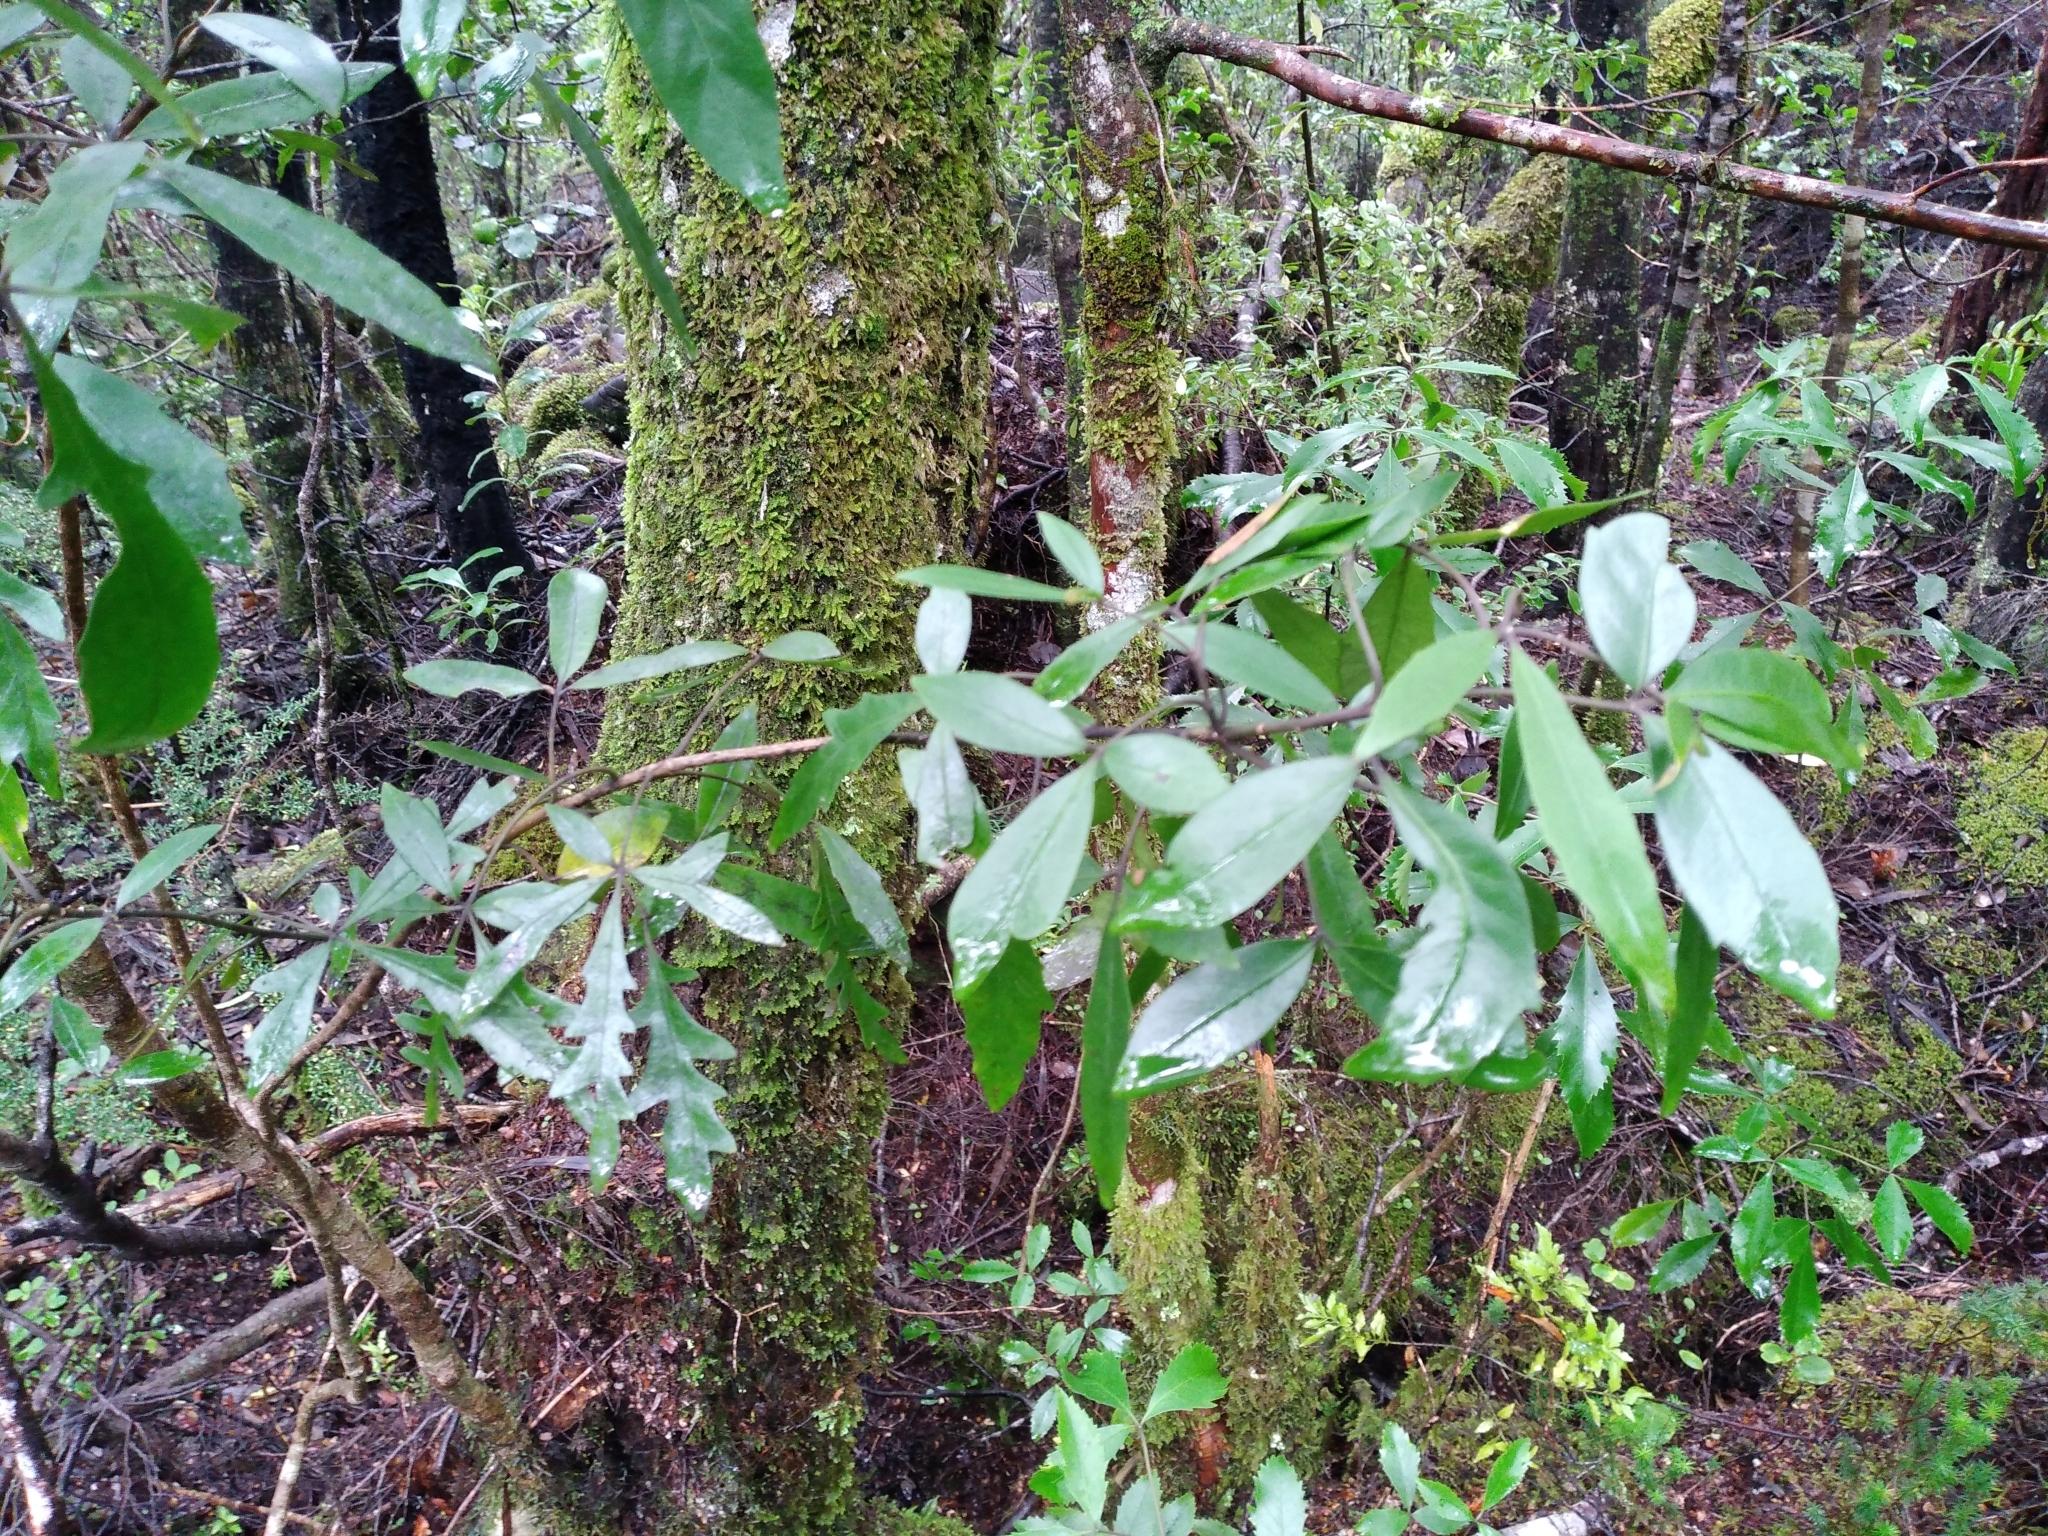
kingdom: Plantae
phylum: Tracheophyta
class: Magnoliopsida
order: Apiales
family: Araliaceae
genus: Raukaua
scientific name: Raukaua simplex
